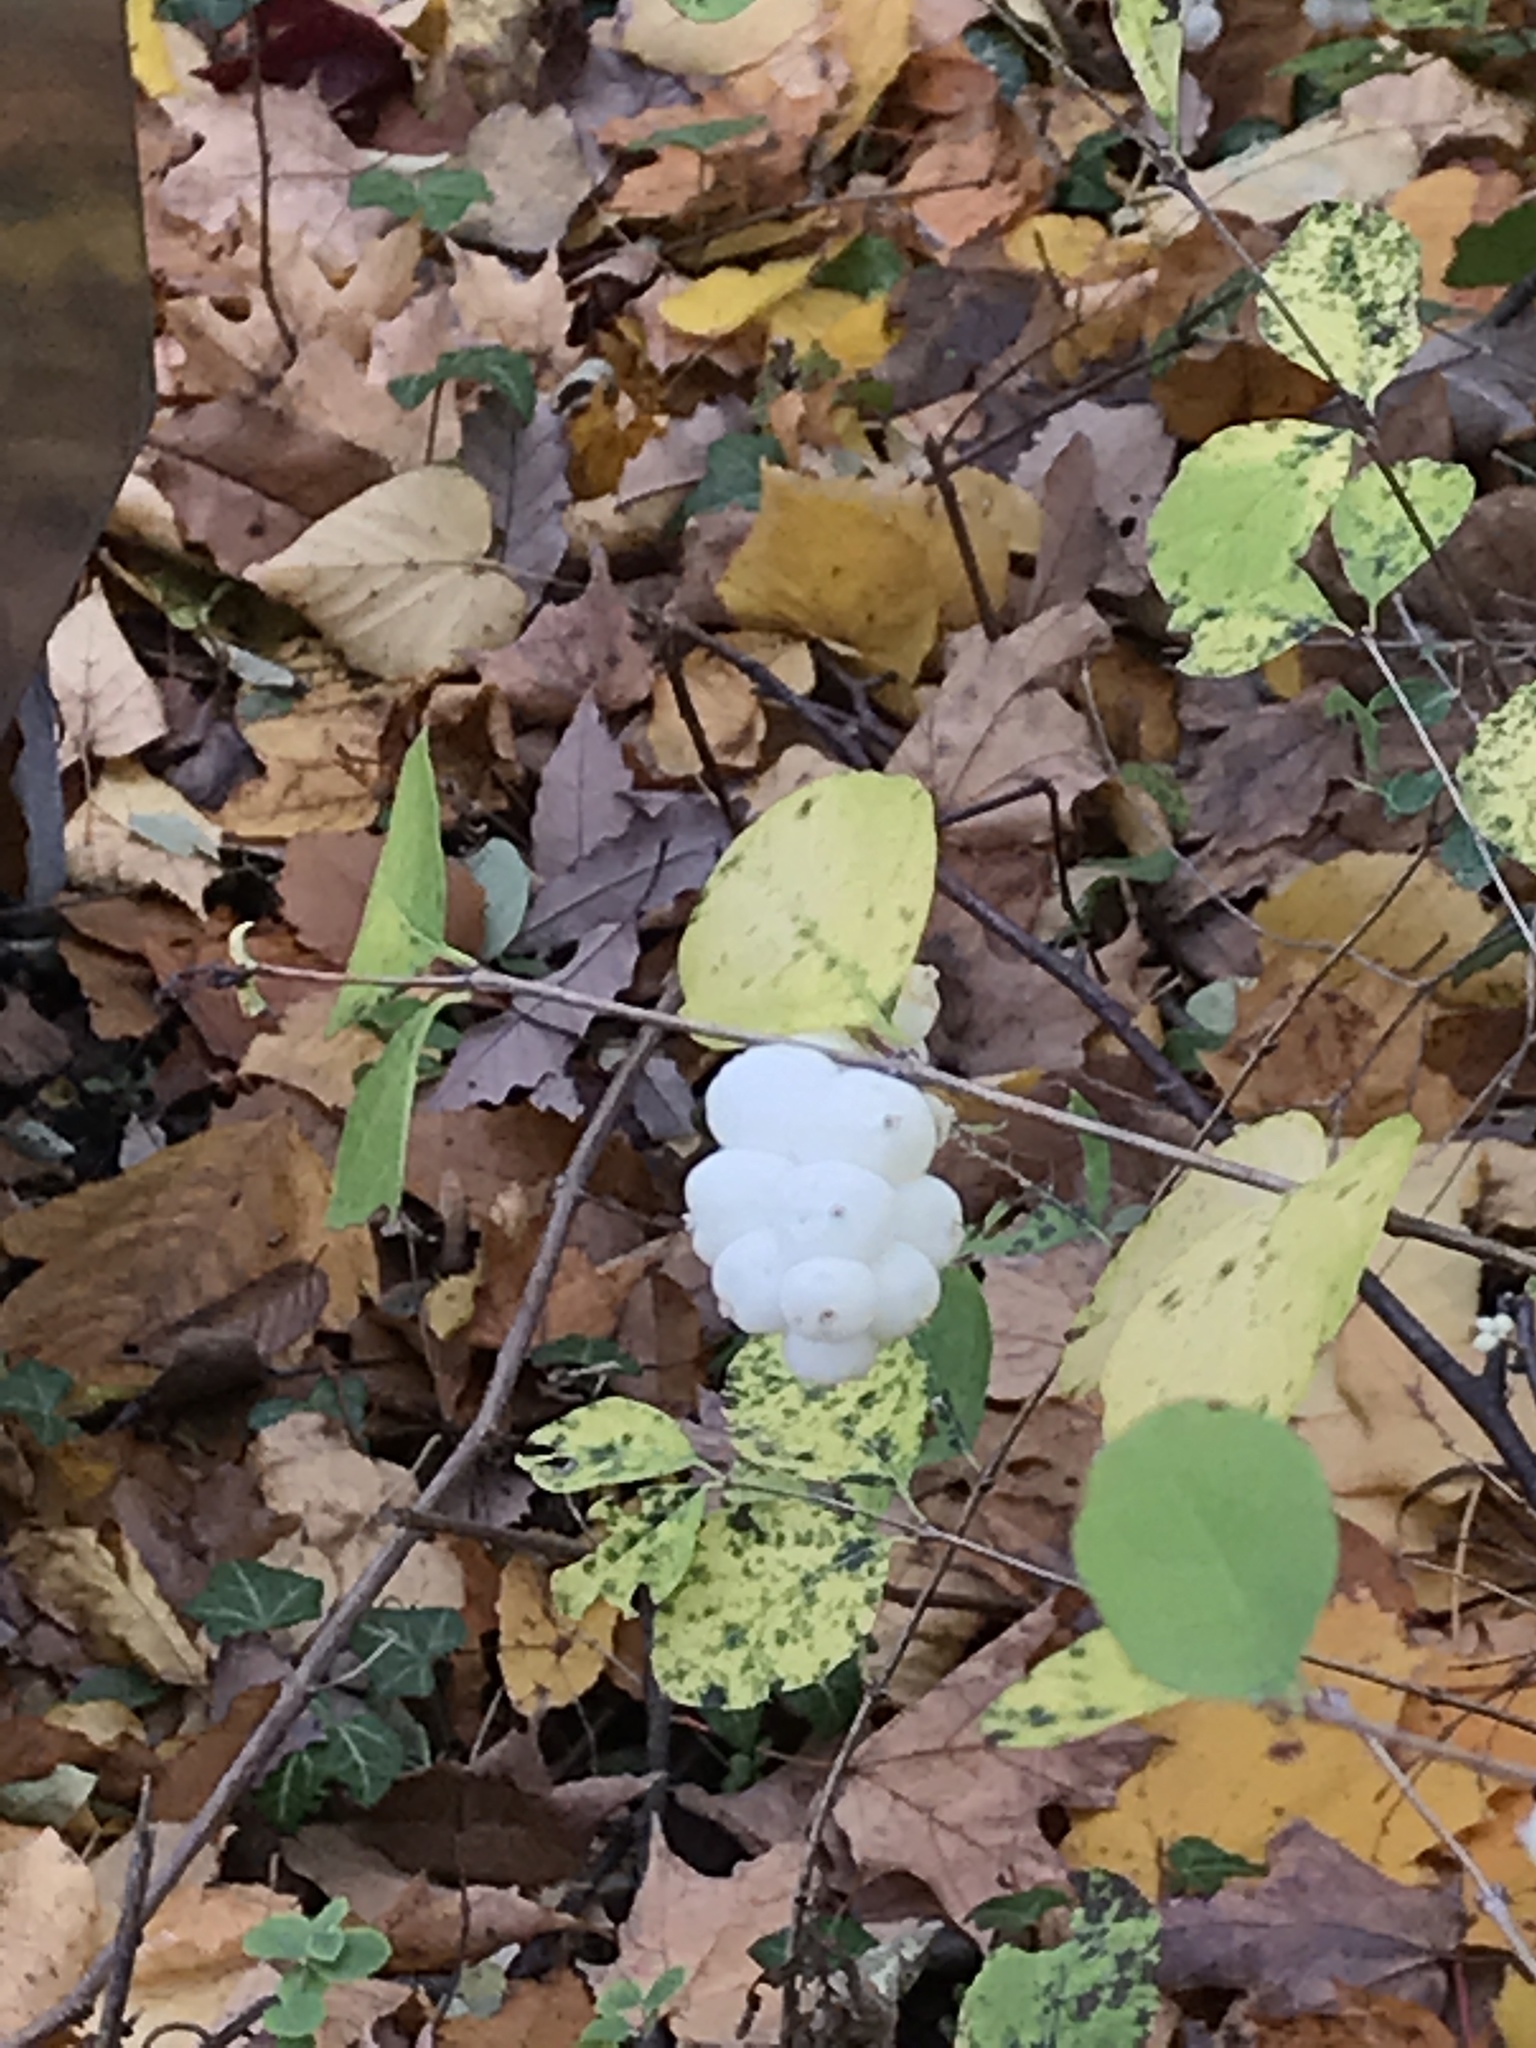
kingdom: Plantae
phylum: Tracheophyta
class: Magnoliopsida
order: Dipsacales
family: Caprifoliaceae
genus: Symphoricarpos
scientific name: Symphoricarpos albus
